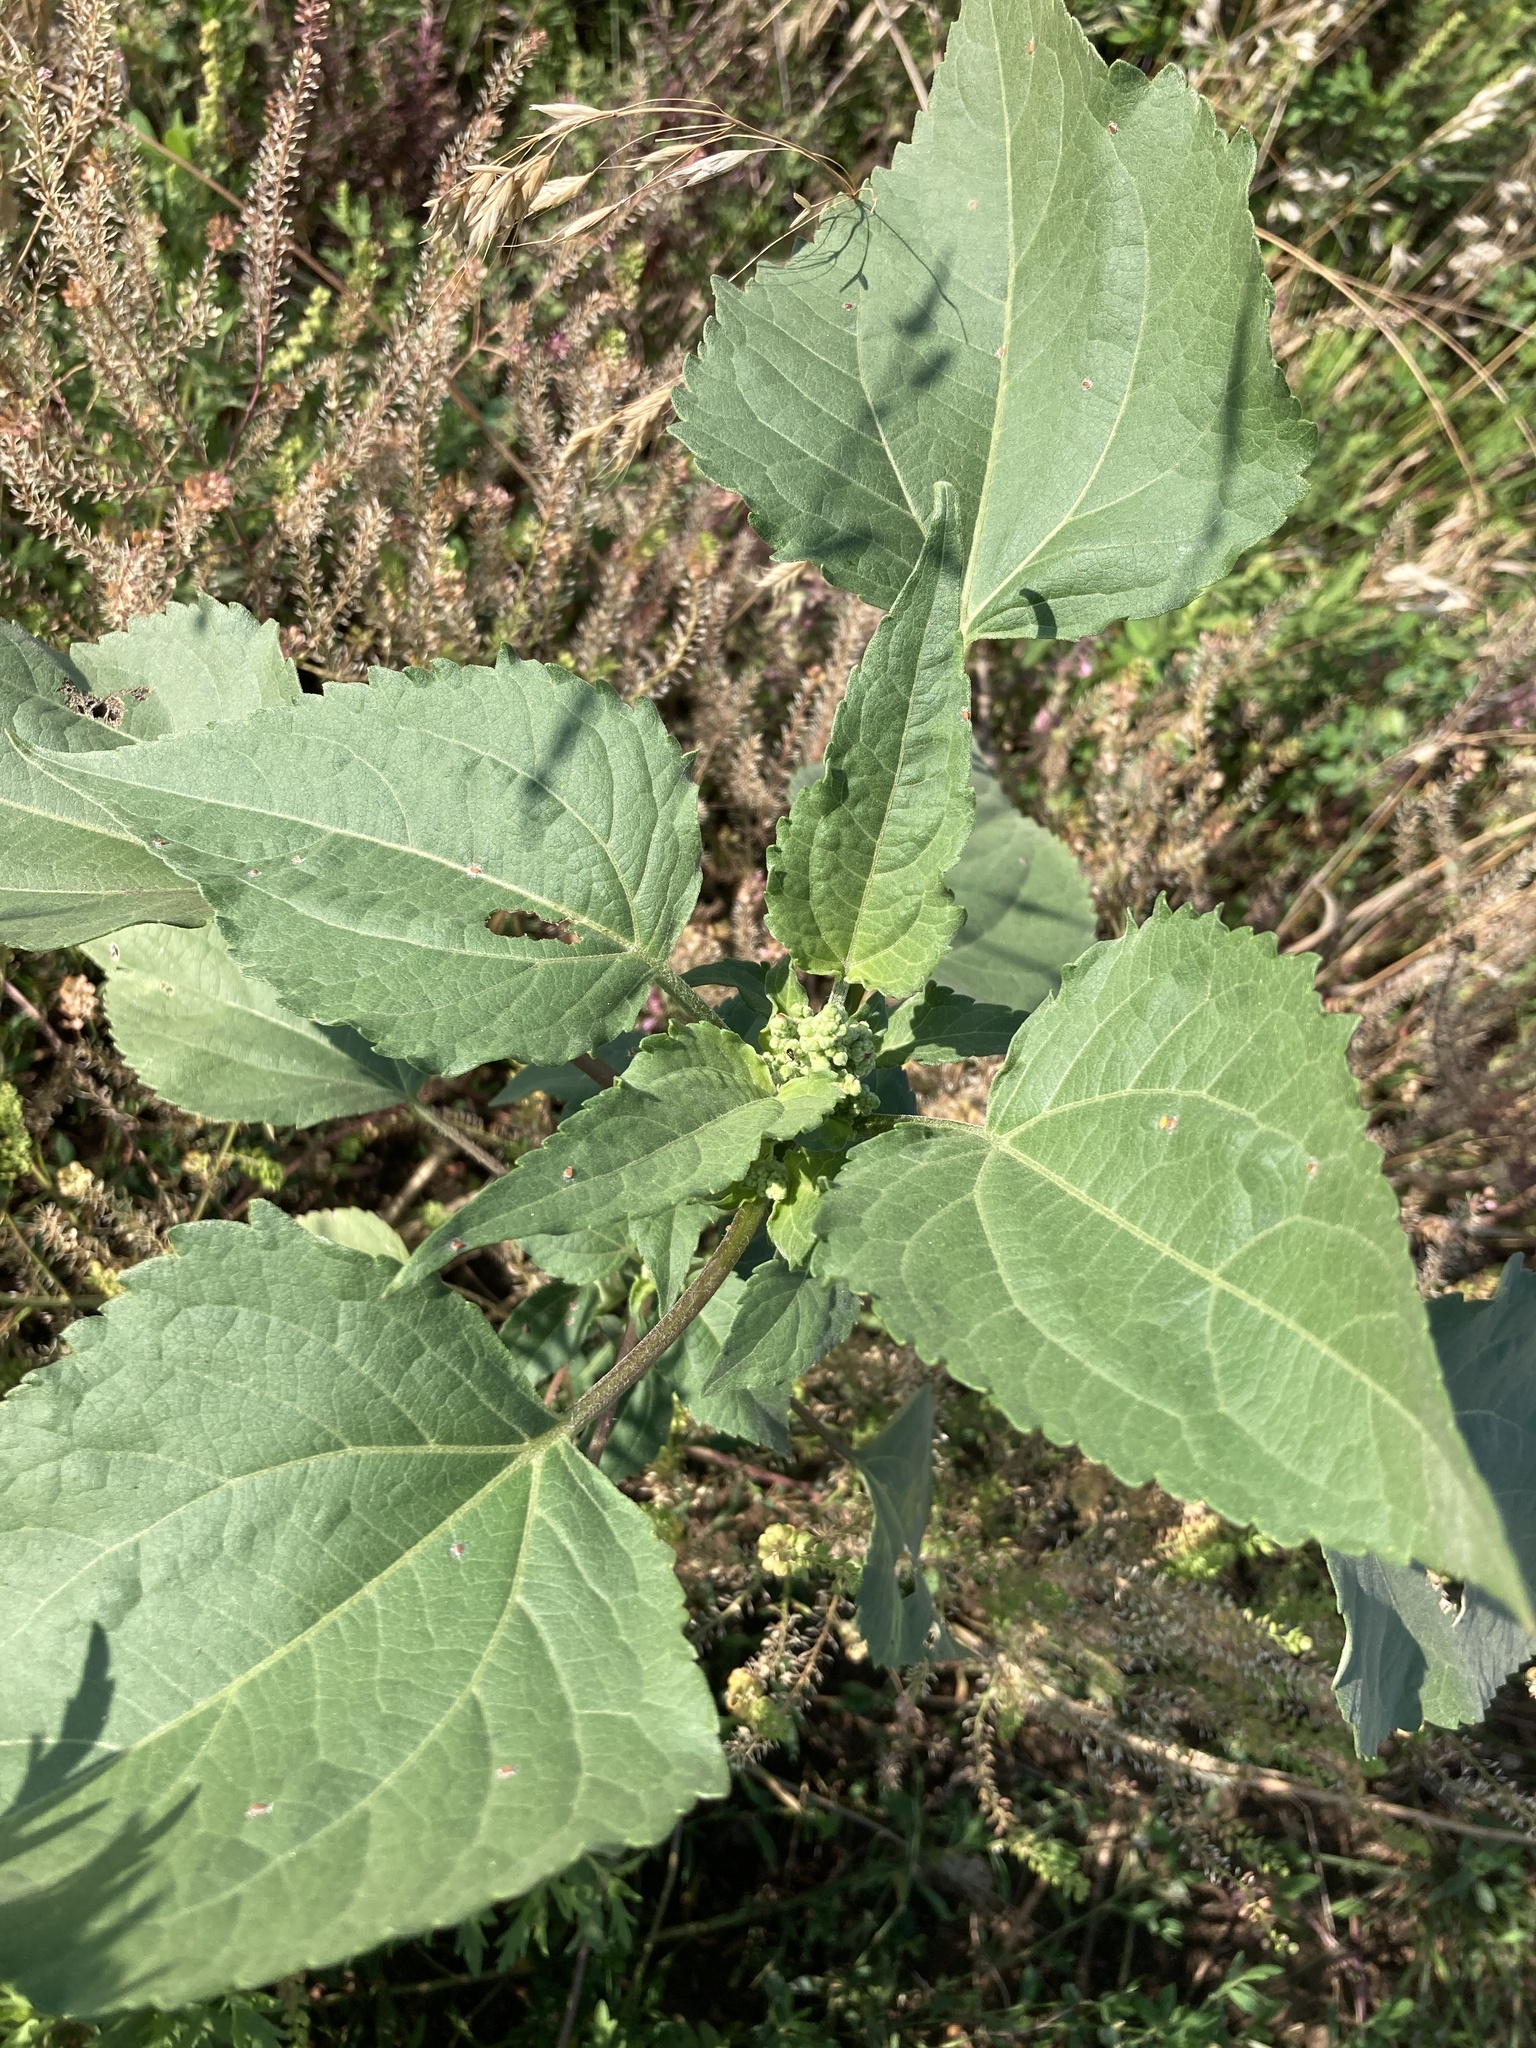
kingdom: Plantae
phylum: Tracheophyta
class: Magnoliopsida
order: Asterales
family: Asteraceae
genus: Cyclachaena
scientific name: Cyclachaena xanthiifolia
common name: Giant sumpweed
